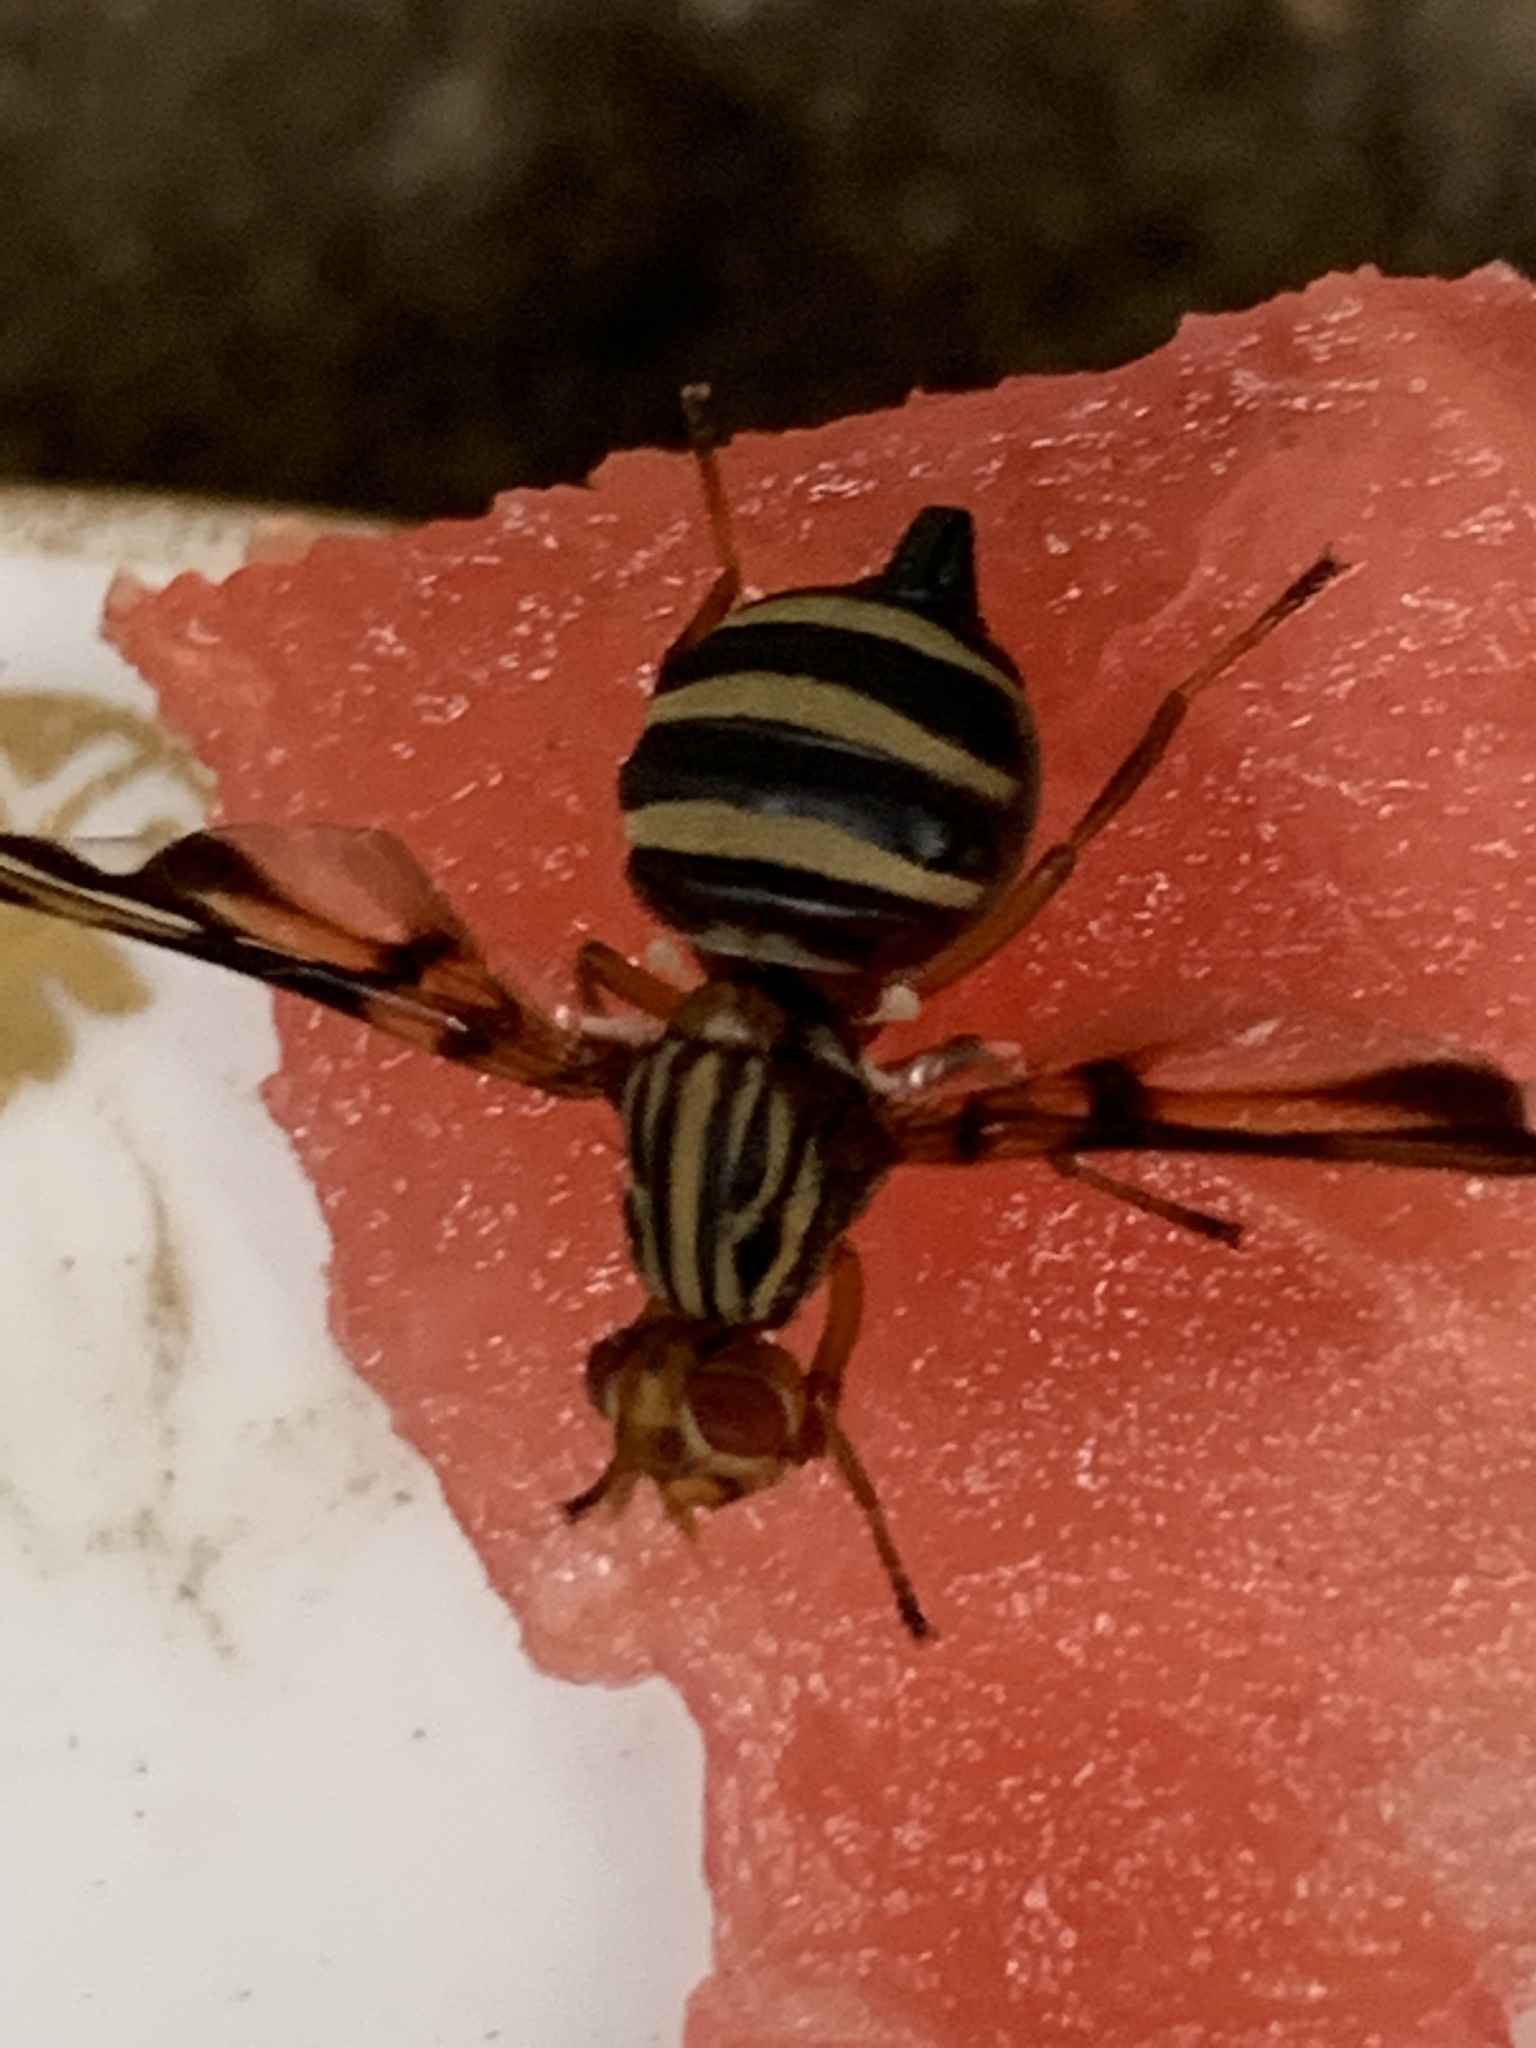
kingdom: Animalia
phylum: Arthropoda
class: Insecta
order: Diptera
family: Ulidiidae
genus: Idana
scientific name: Idana marginata
